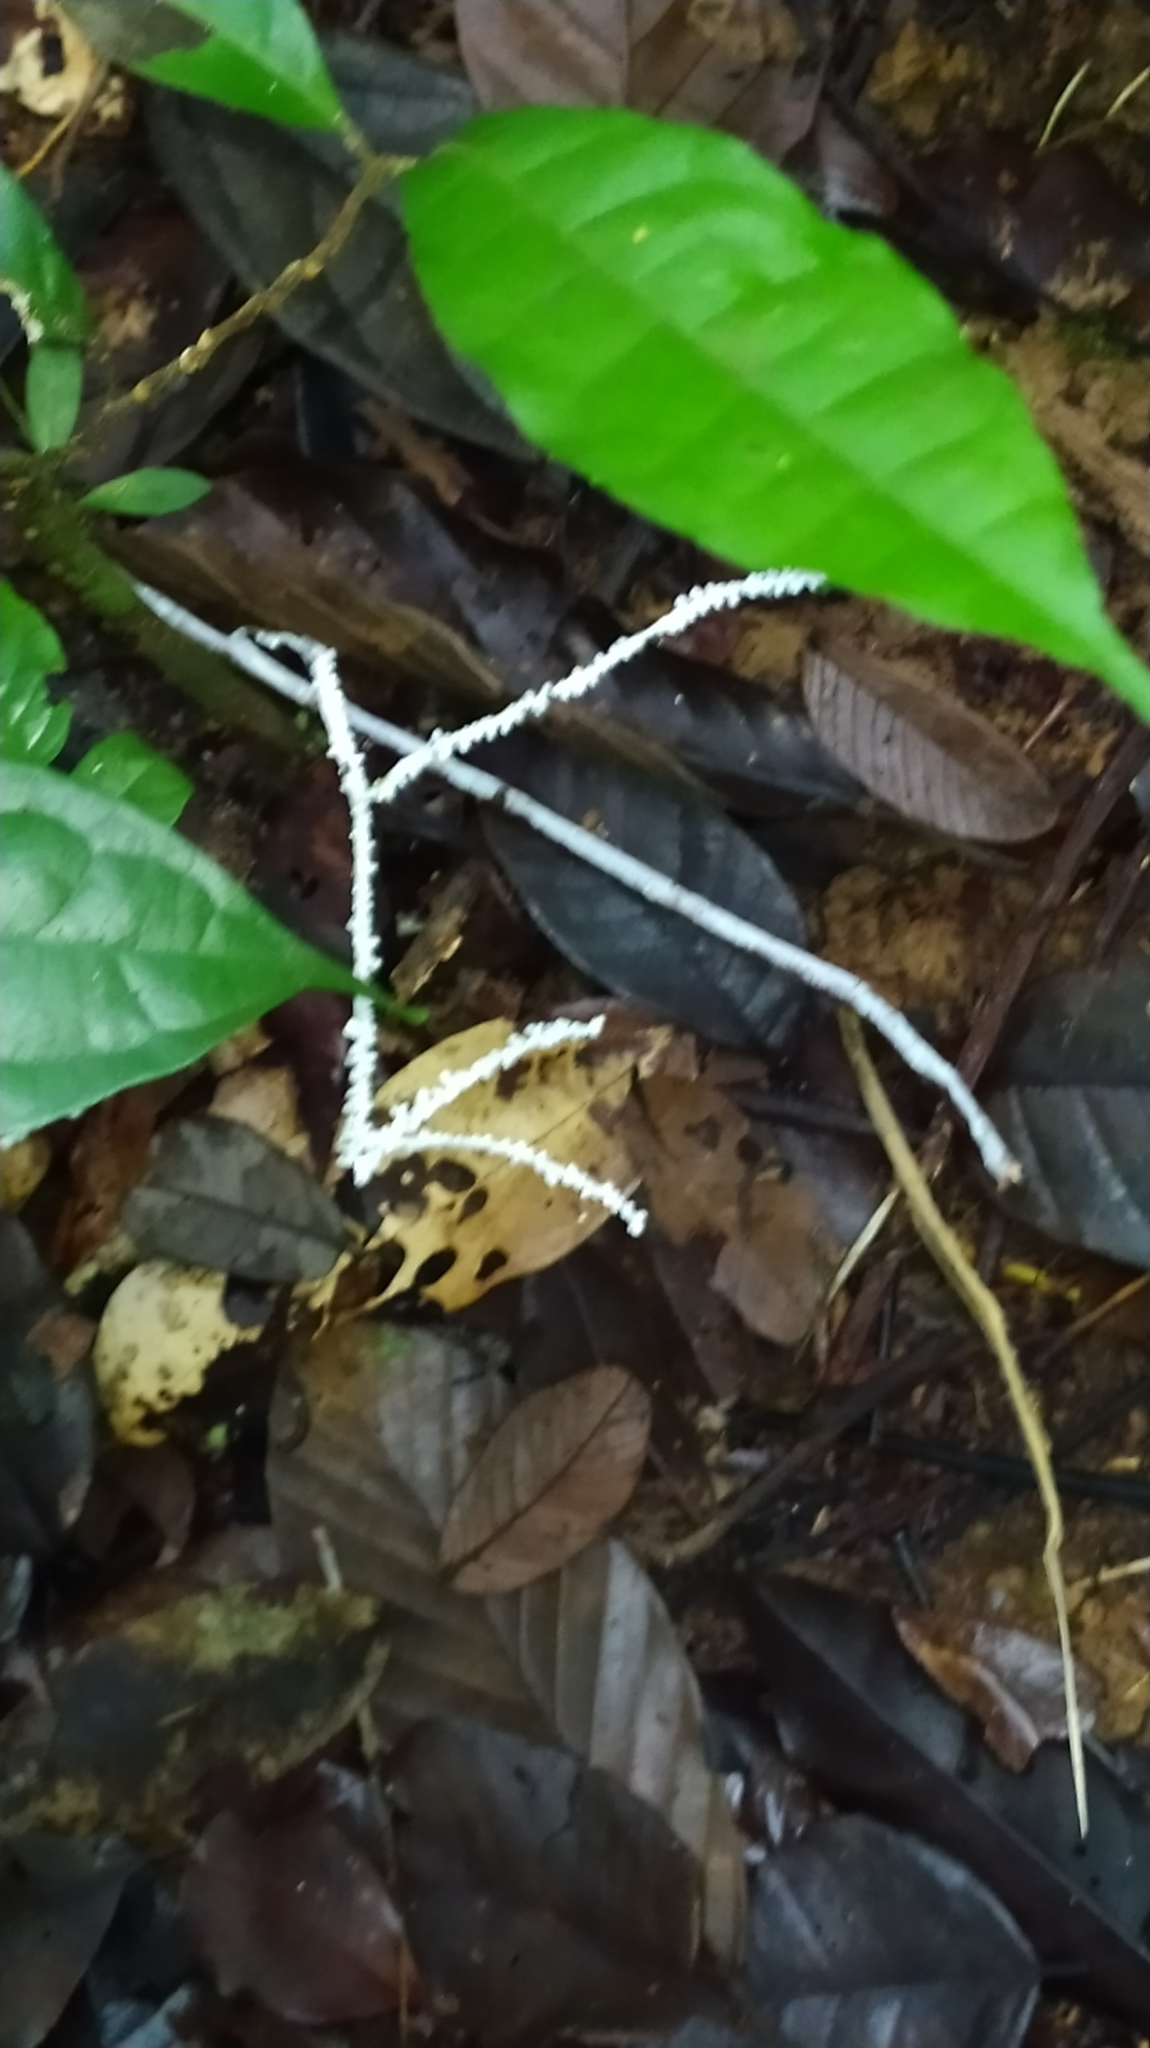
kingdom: Fungi
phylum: Basidiomycota
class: Agaricomycetes
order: Agaricales
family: Marasmiaceae
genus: Brunneocorticium
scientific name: Brunneocorticium corynecarpon
